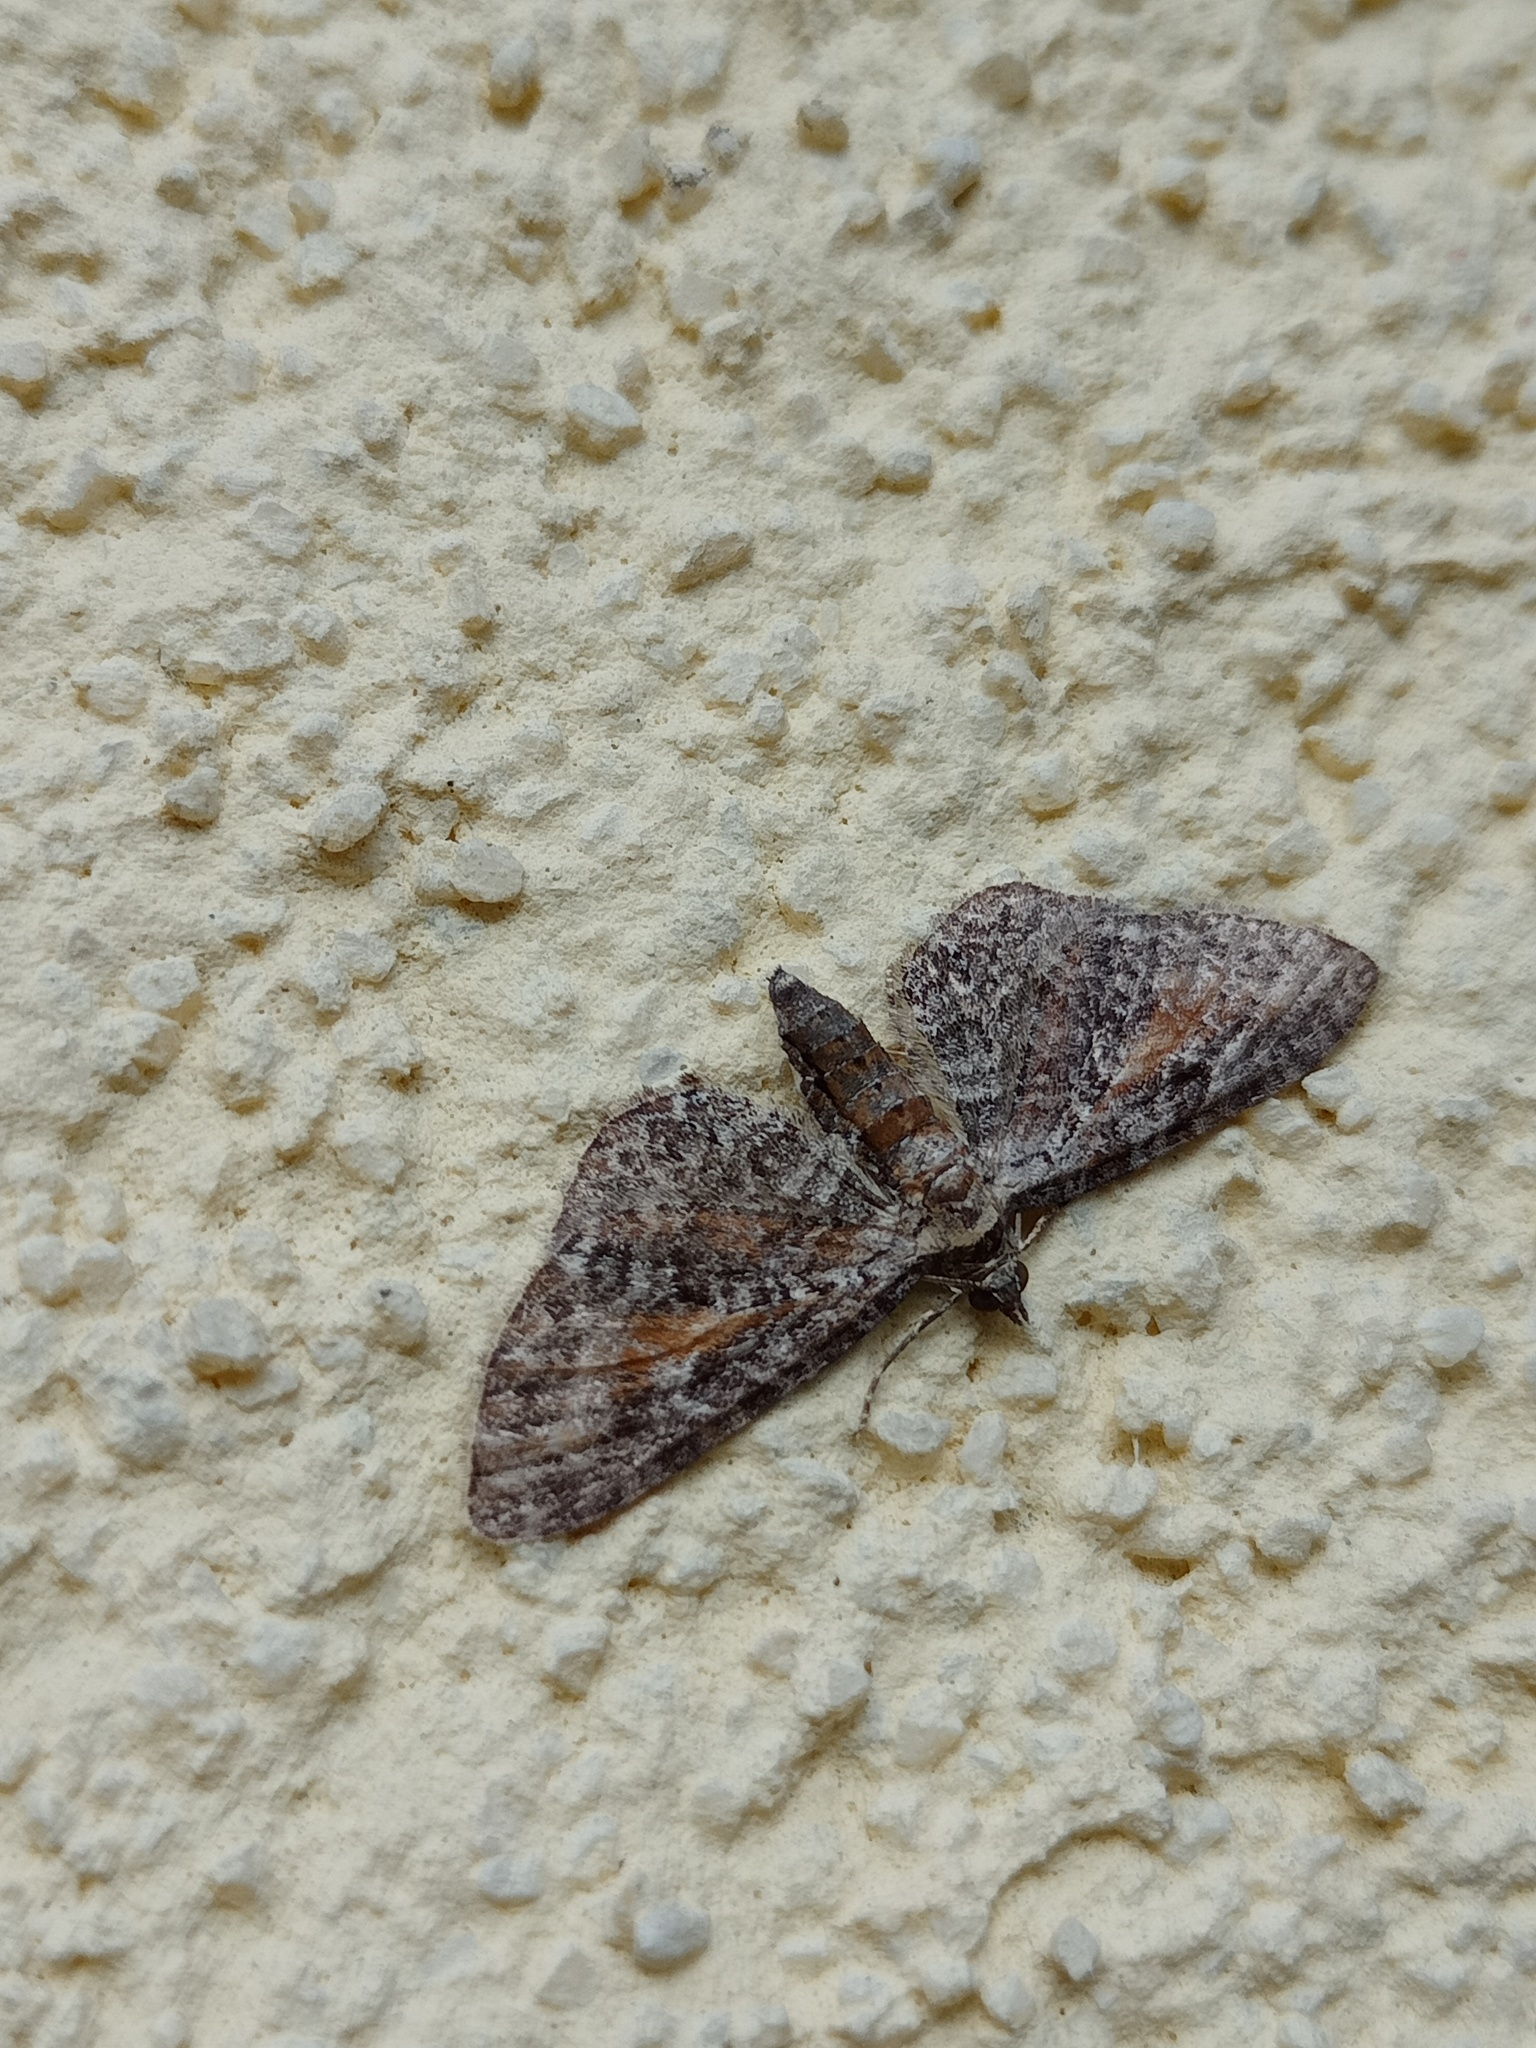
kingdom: Animalia
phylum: Arthropoda
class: Insecta
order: Lepidoptera
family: Geometridae
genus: Eupithecia
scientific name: Eupithecia icterata
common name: Tawny speckled pug
